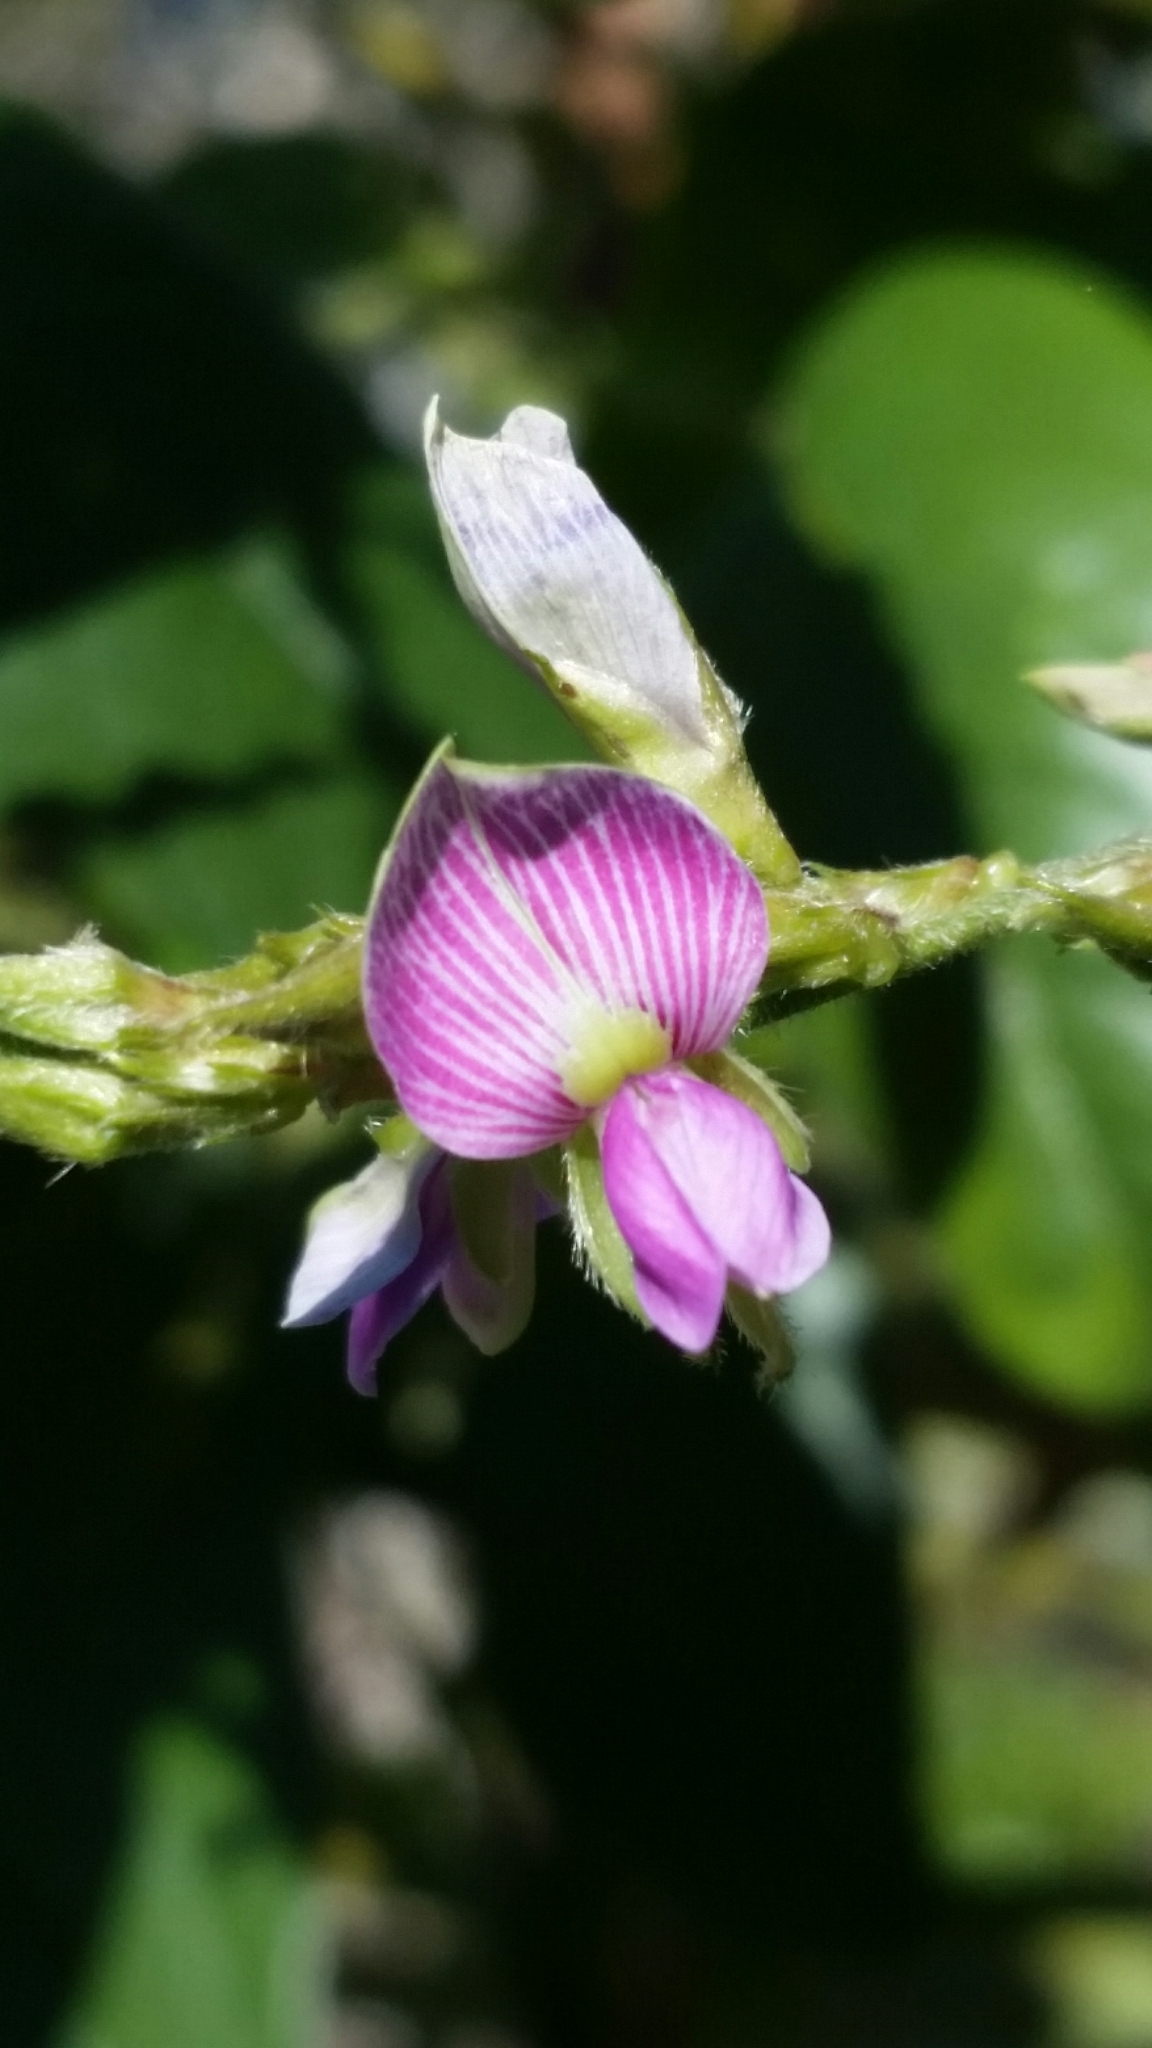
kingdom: Plantae
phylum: Tracheophyta
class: Magnoliopsida
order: Fabales
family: Fabaceae
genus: Galactia
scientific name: Galactia striata
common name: Florida hammock milkpea
